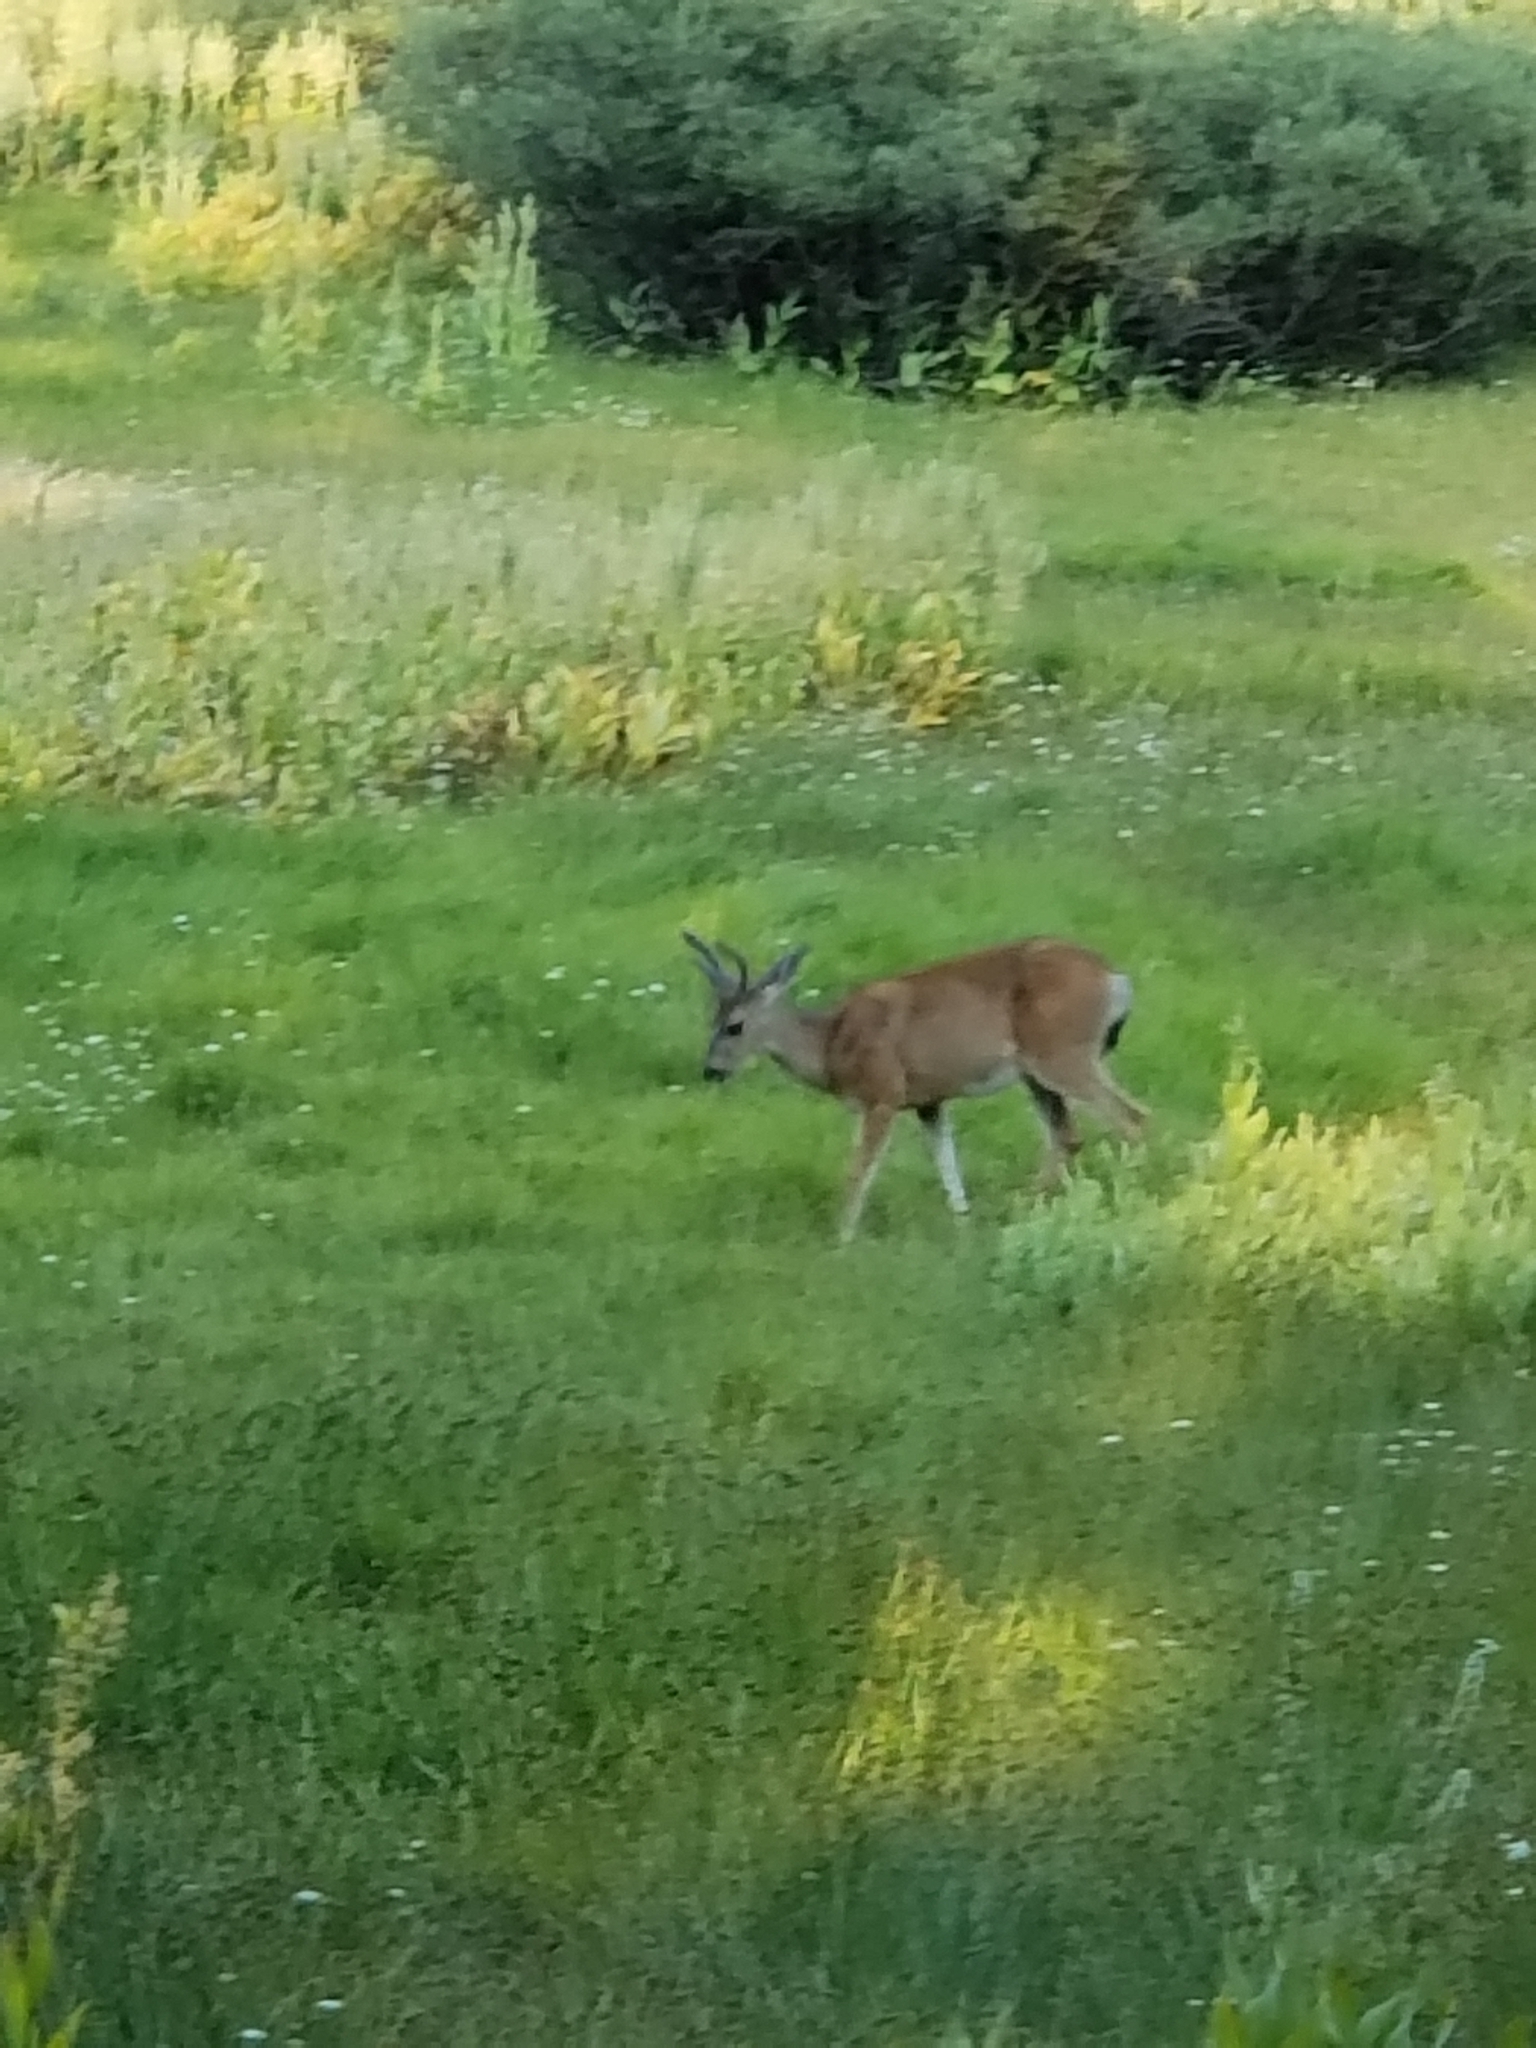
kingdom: Animalia
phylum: Chordata
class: Mammalia
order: Artiodactyla
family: Cervidae
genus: Odocoileus
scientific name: Odocoileus hemionus
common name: Mule deer
